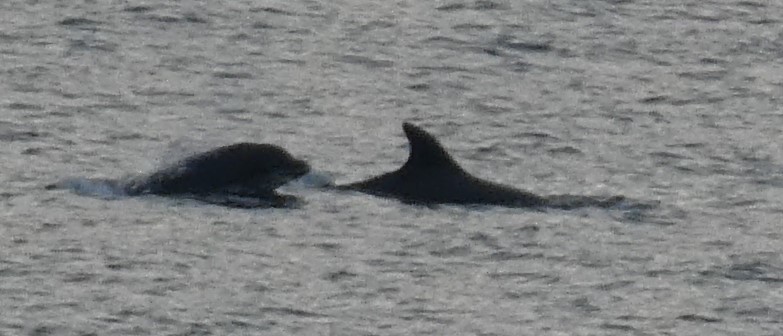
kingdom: Animalia
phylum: Chordata
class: Mammalia
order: Cetacea
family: Delphinidae
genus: Tursiops
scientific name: Tursiops truncatus
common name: Bottlenose dolphin
